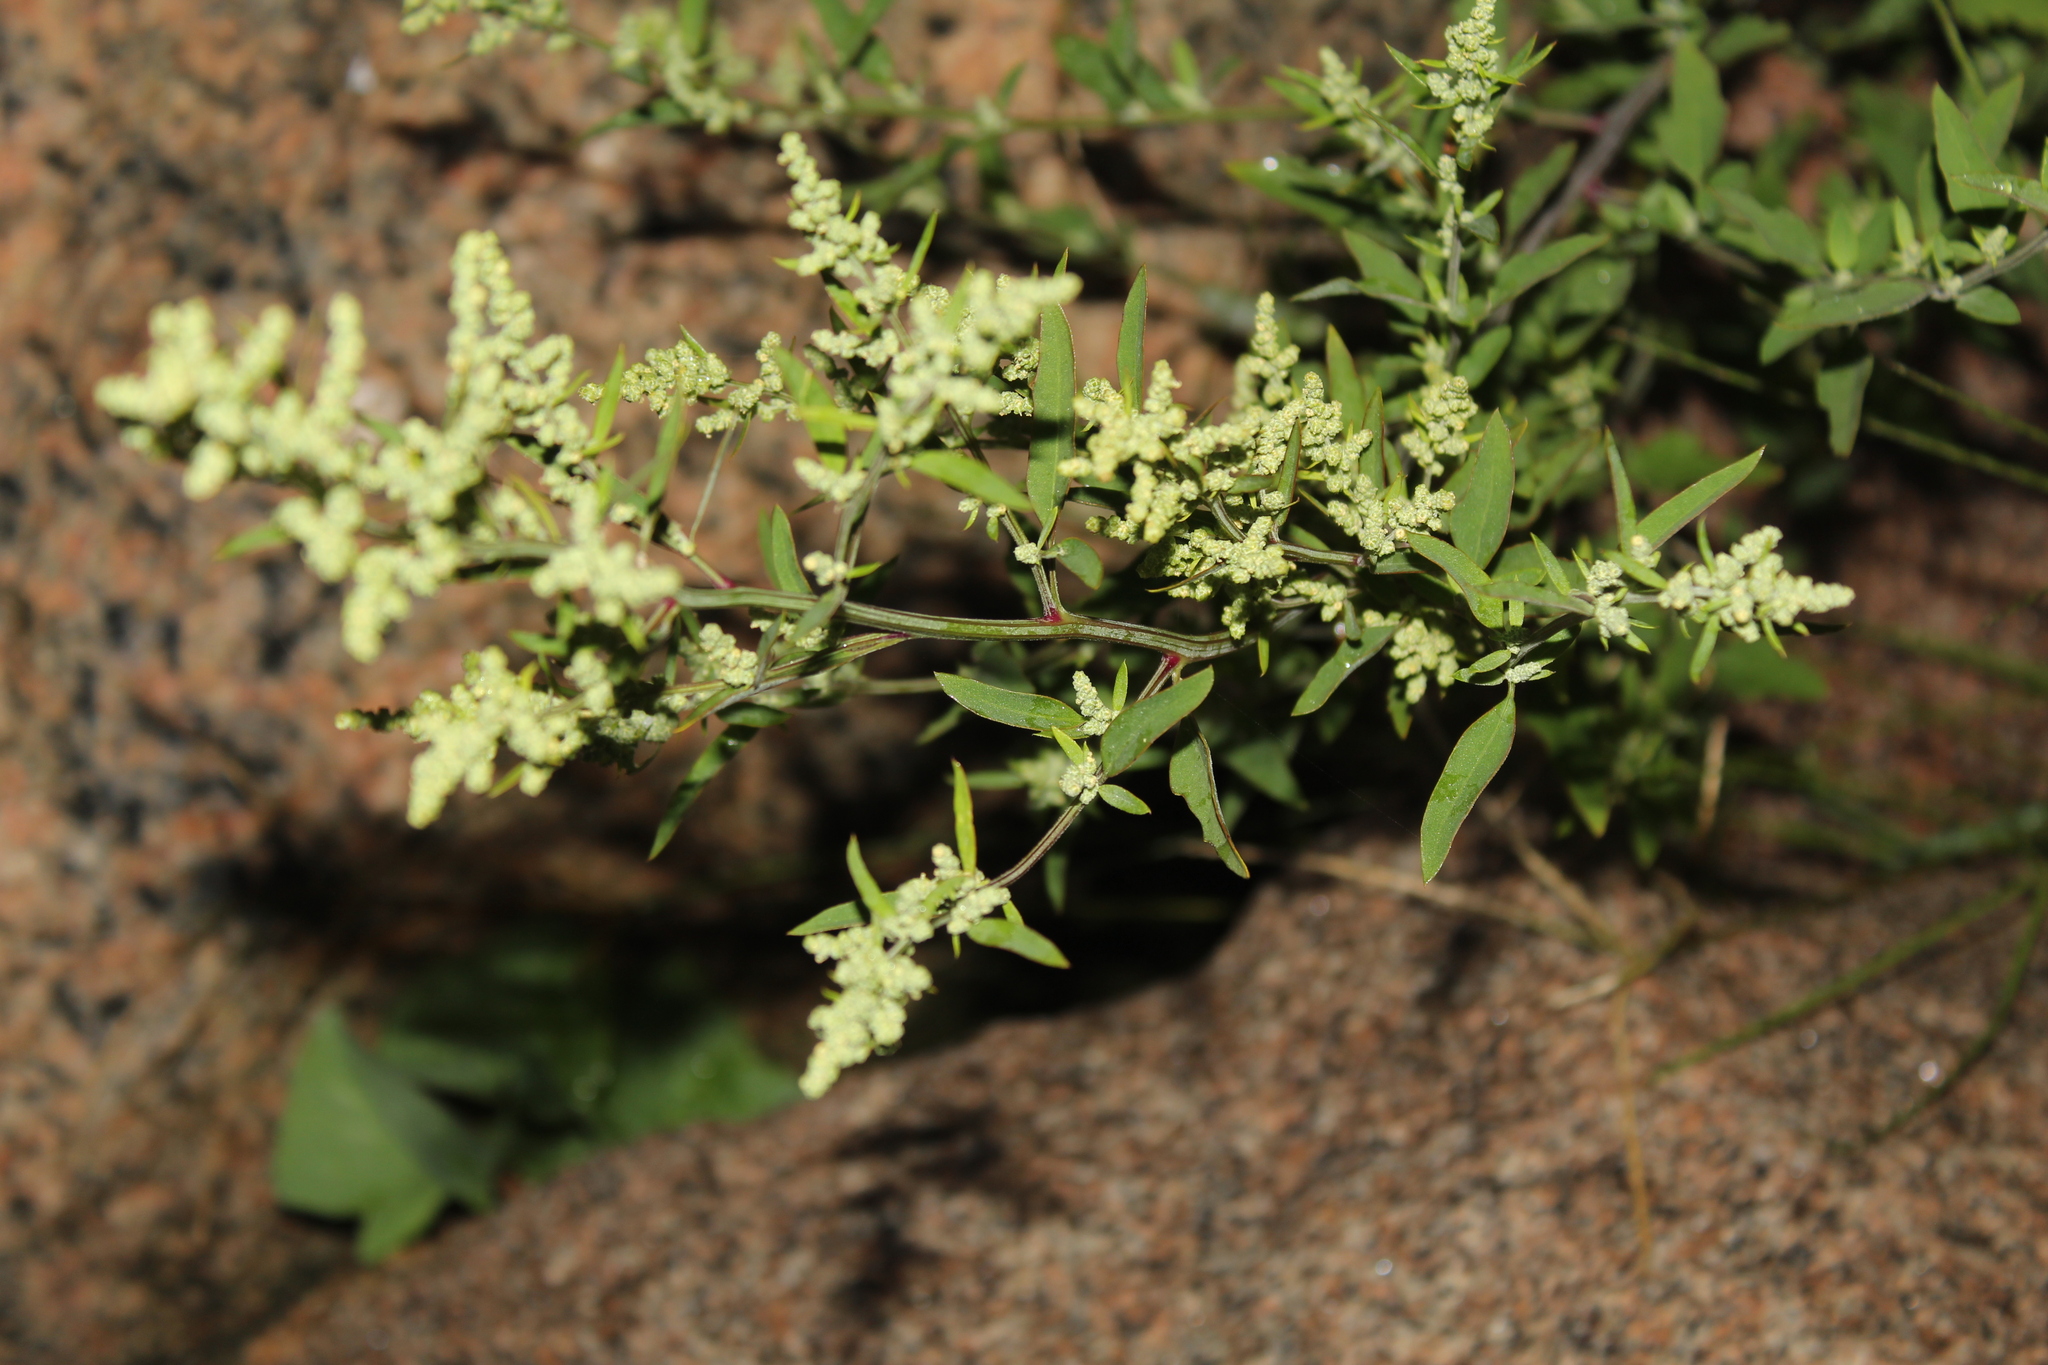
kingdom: Plantae
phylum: Tracheophyta
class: Magnoliopsida
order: Caryophyllales
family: Amaranthaceae
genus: Chenopodium
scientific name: Chenopodium album
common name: Fat-hen
